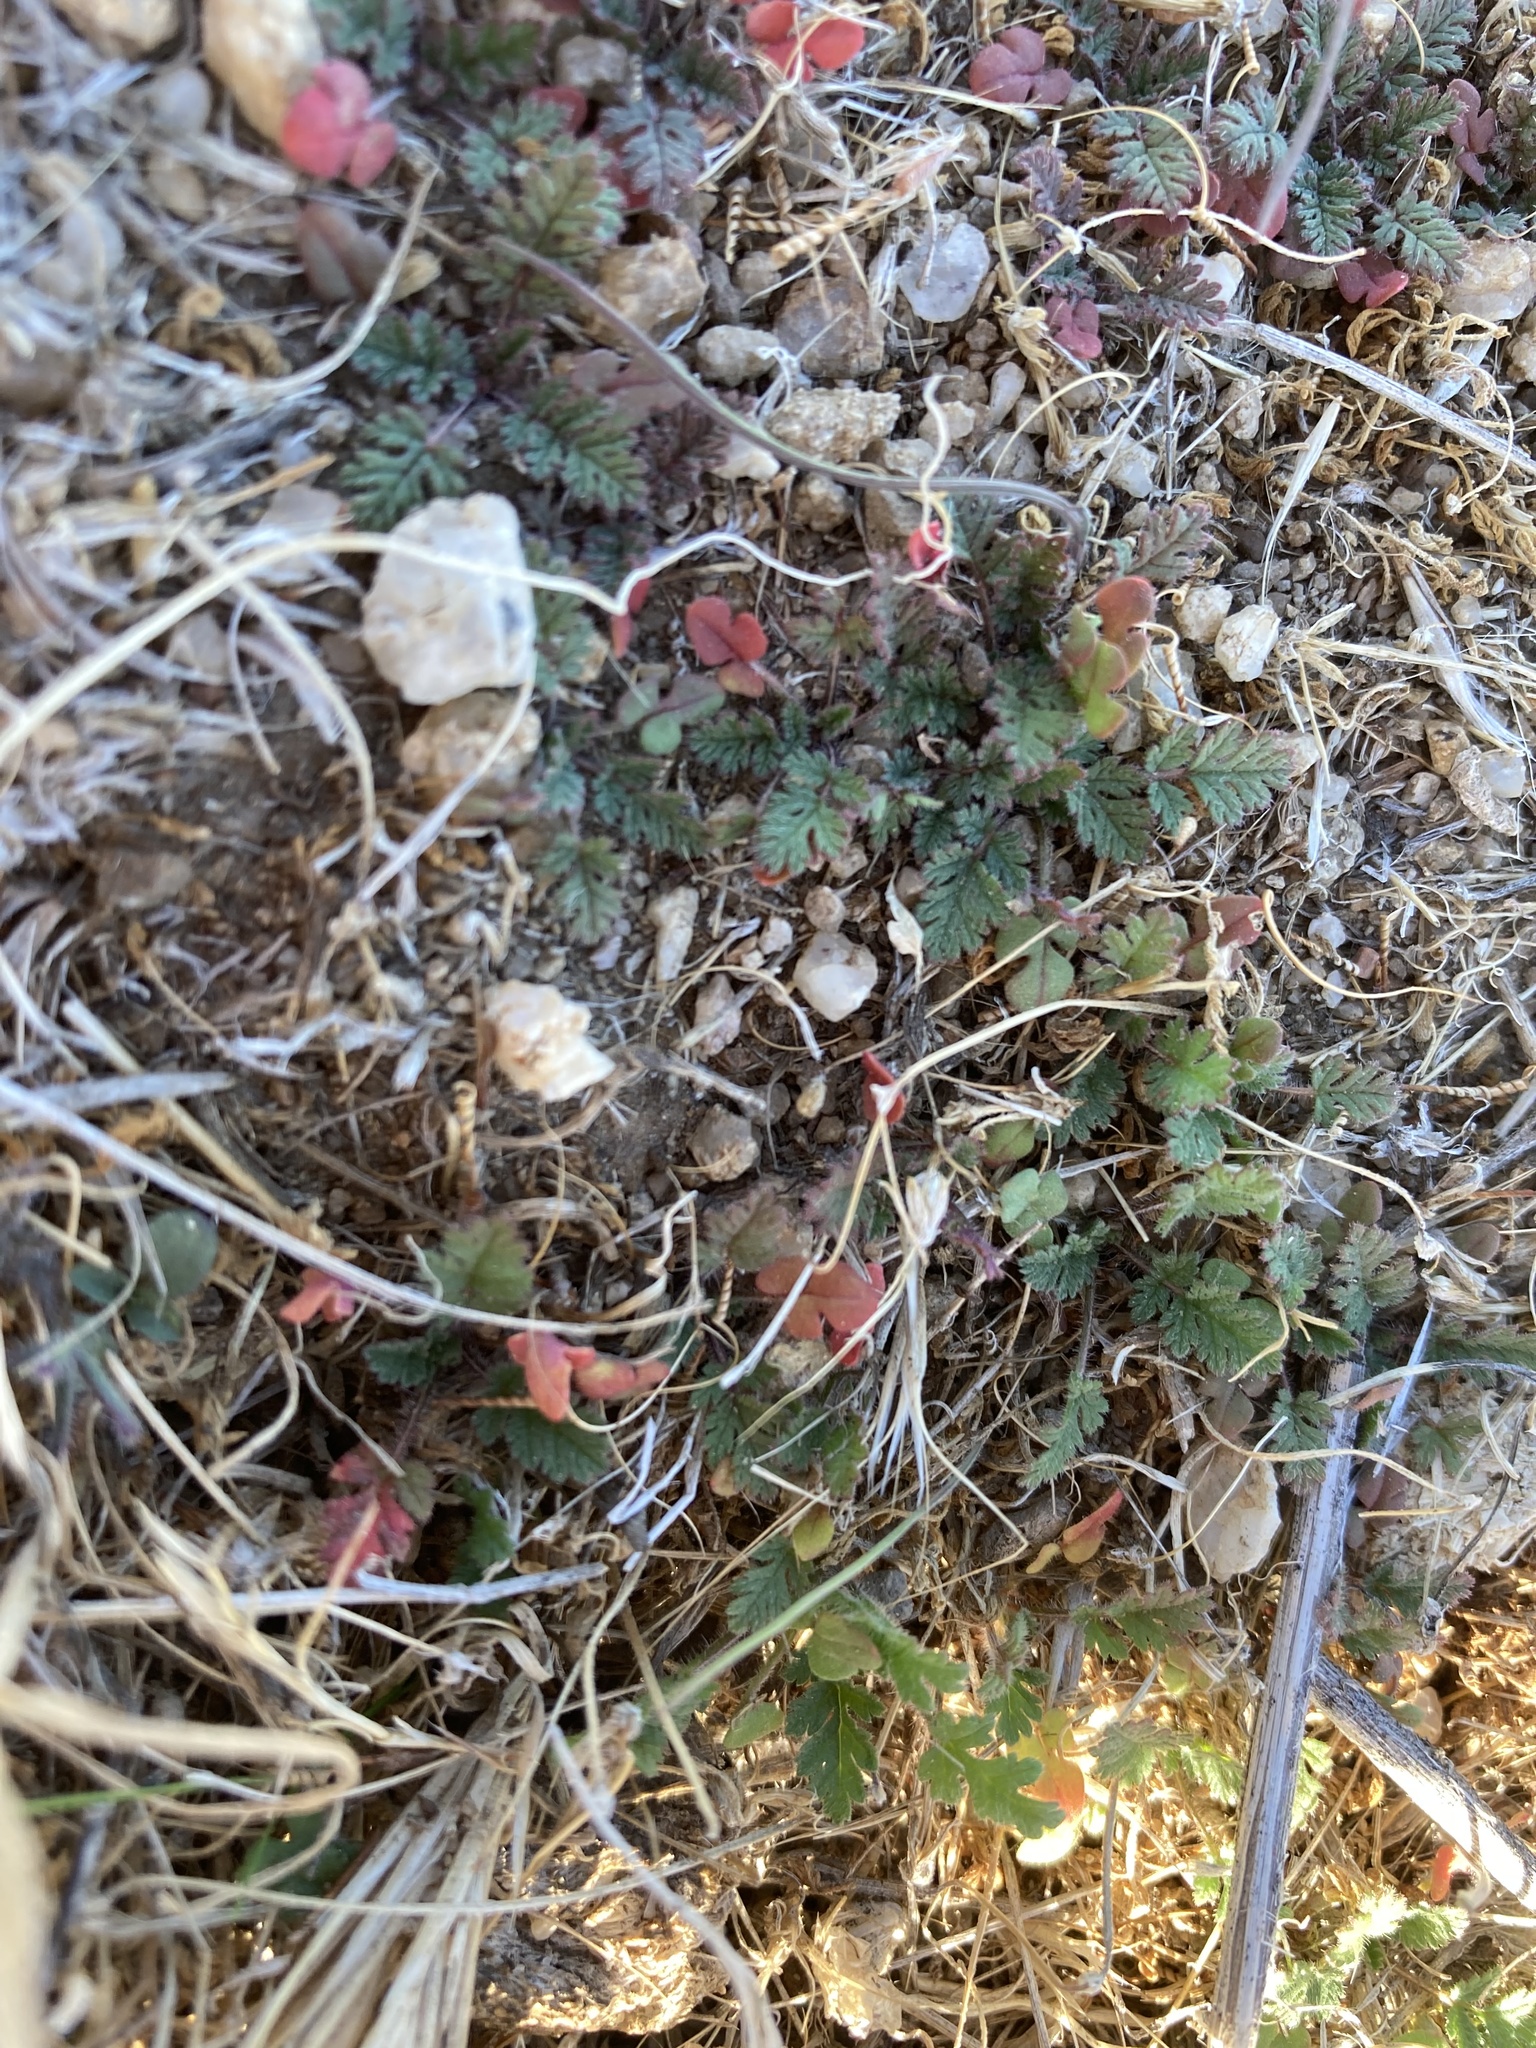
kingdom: Plantae
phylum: Tracheophyta
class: Magnoliopsida
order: Geraniales
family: Geraniaceae
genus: Erodium
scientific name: Erodium cicutarium
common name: Common stork's-bill
